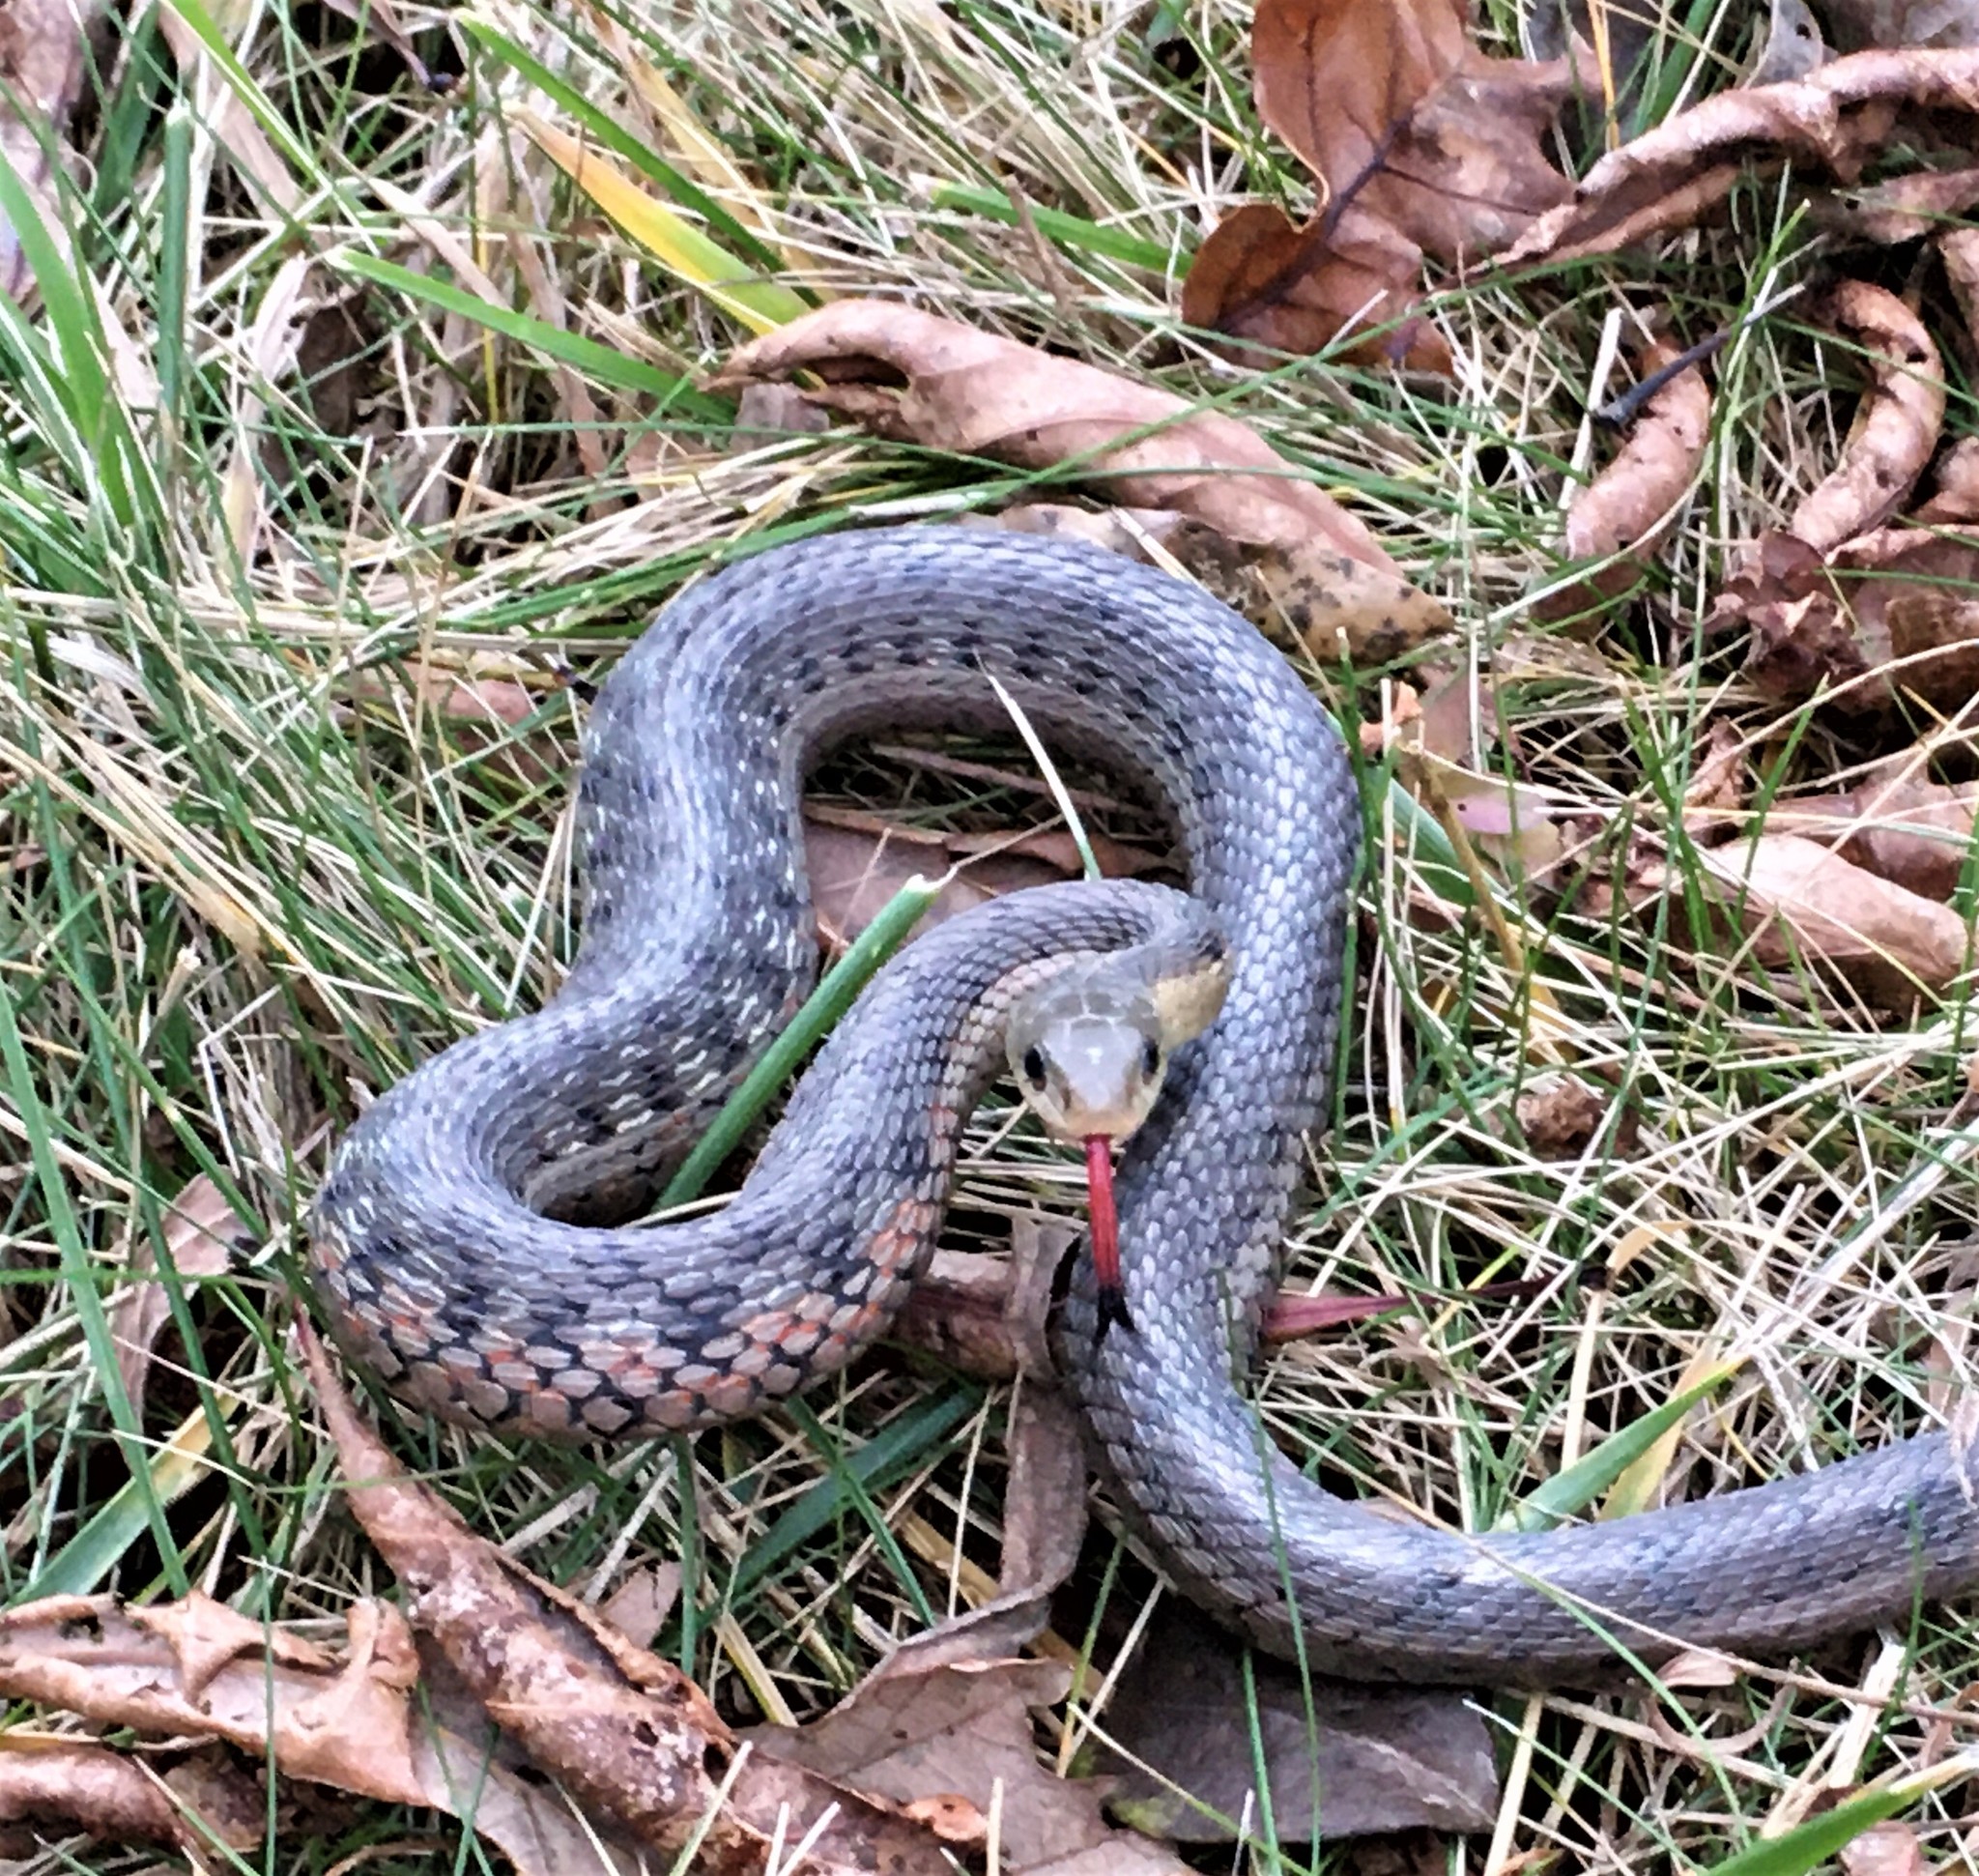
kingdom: Animalia
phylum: Chordata
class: Squamata
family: Colubridae
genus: Thamnophis
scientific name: Thamnophis sirtalis
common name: Common garter snake
